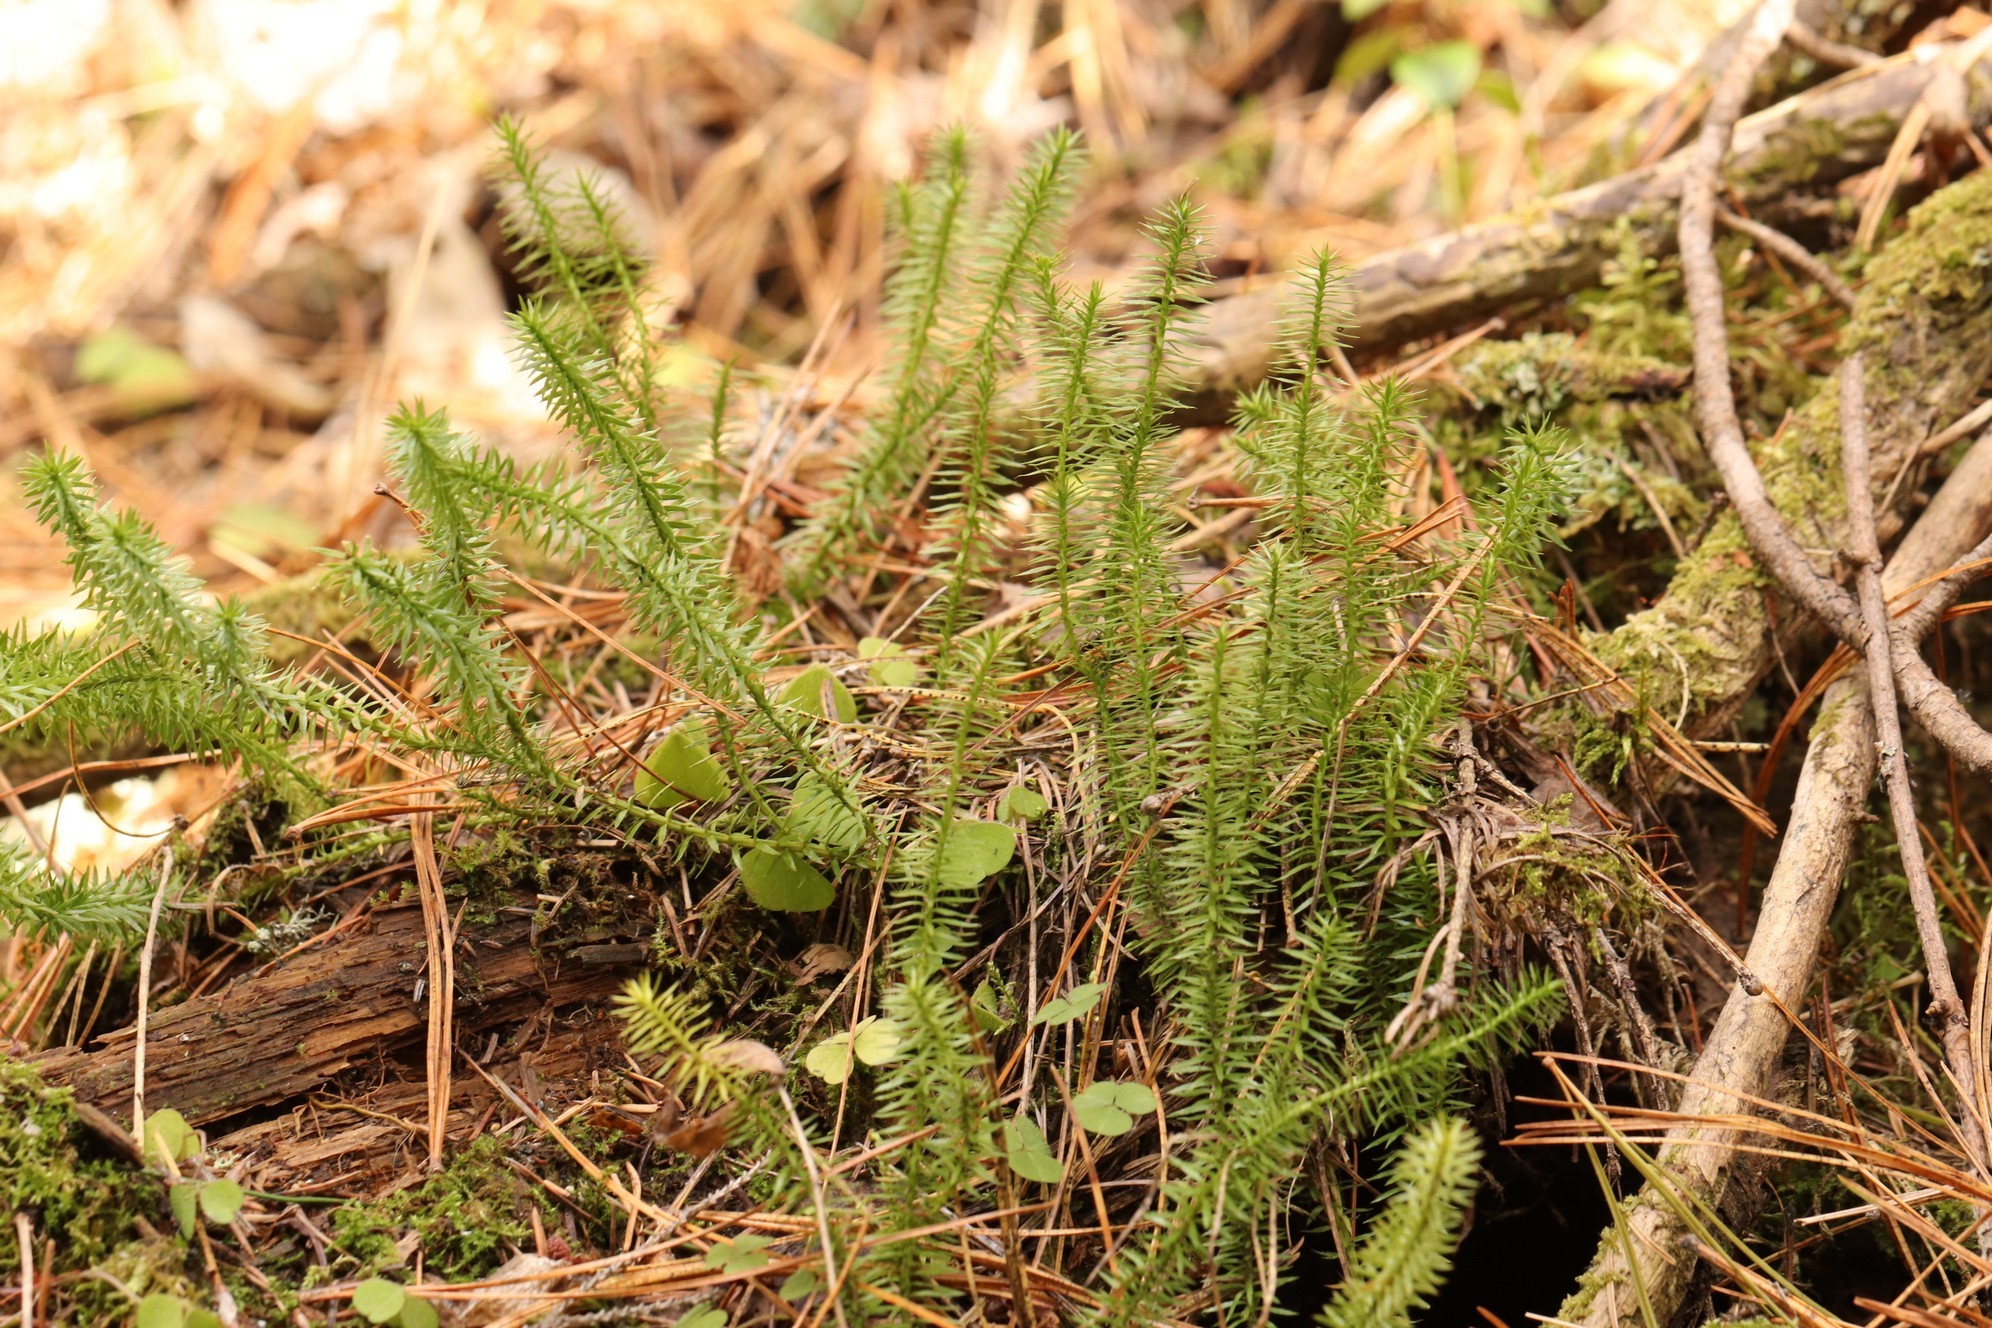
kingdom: Plantae
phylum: Tracheophyta
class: Lycopodiopsida
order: Lycopodiales
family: Lycopodiaceae
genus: Spinulum
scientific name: Spinulum annotinum
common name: Interrupted club-moss
